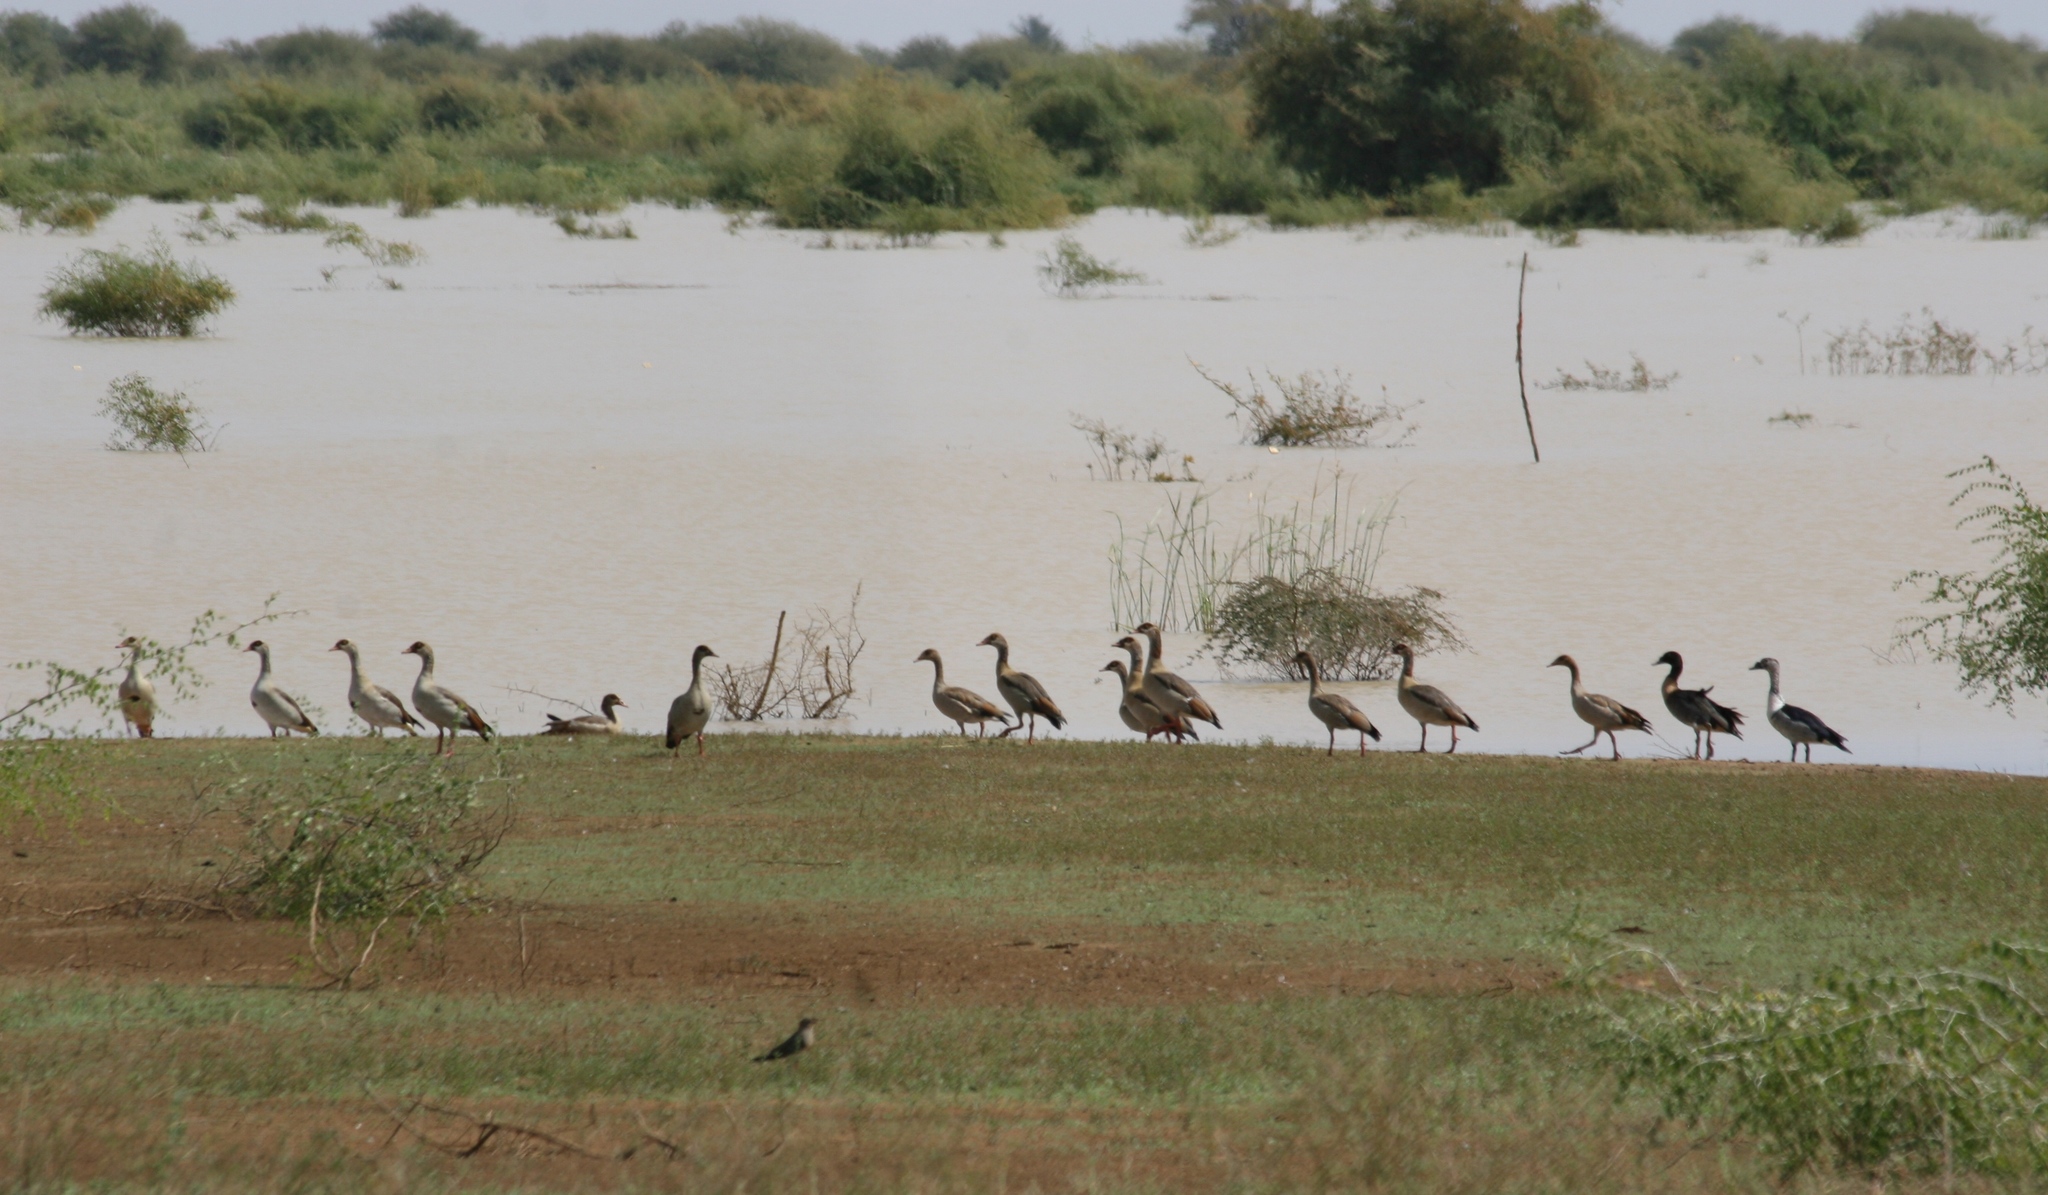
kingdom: Animalia
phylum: Chordata
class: Aves
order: Anseriformes
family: Anatidae
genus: Alopochen
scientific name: Alopochen aegyptiaca
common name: Egyptian goose
